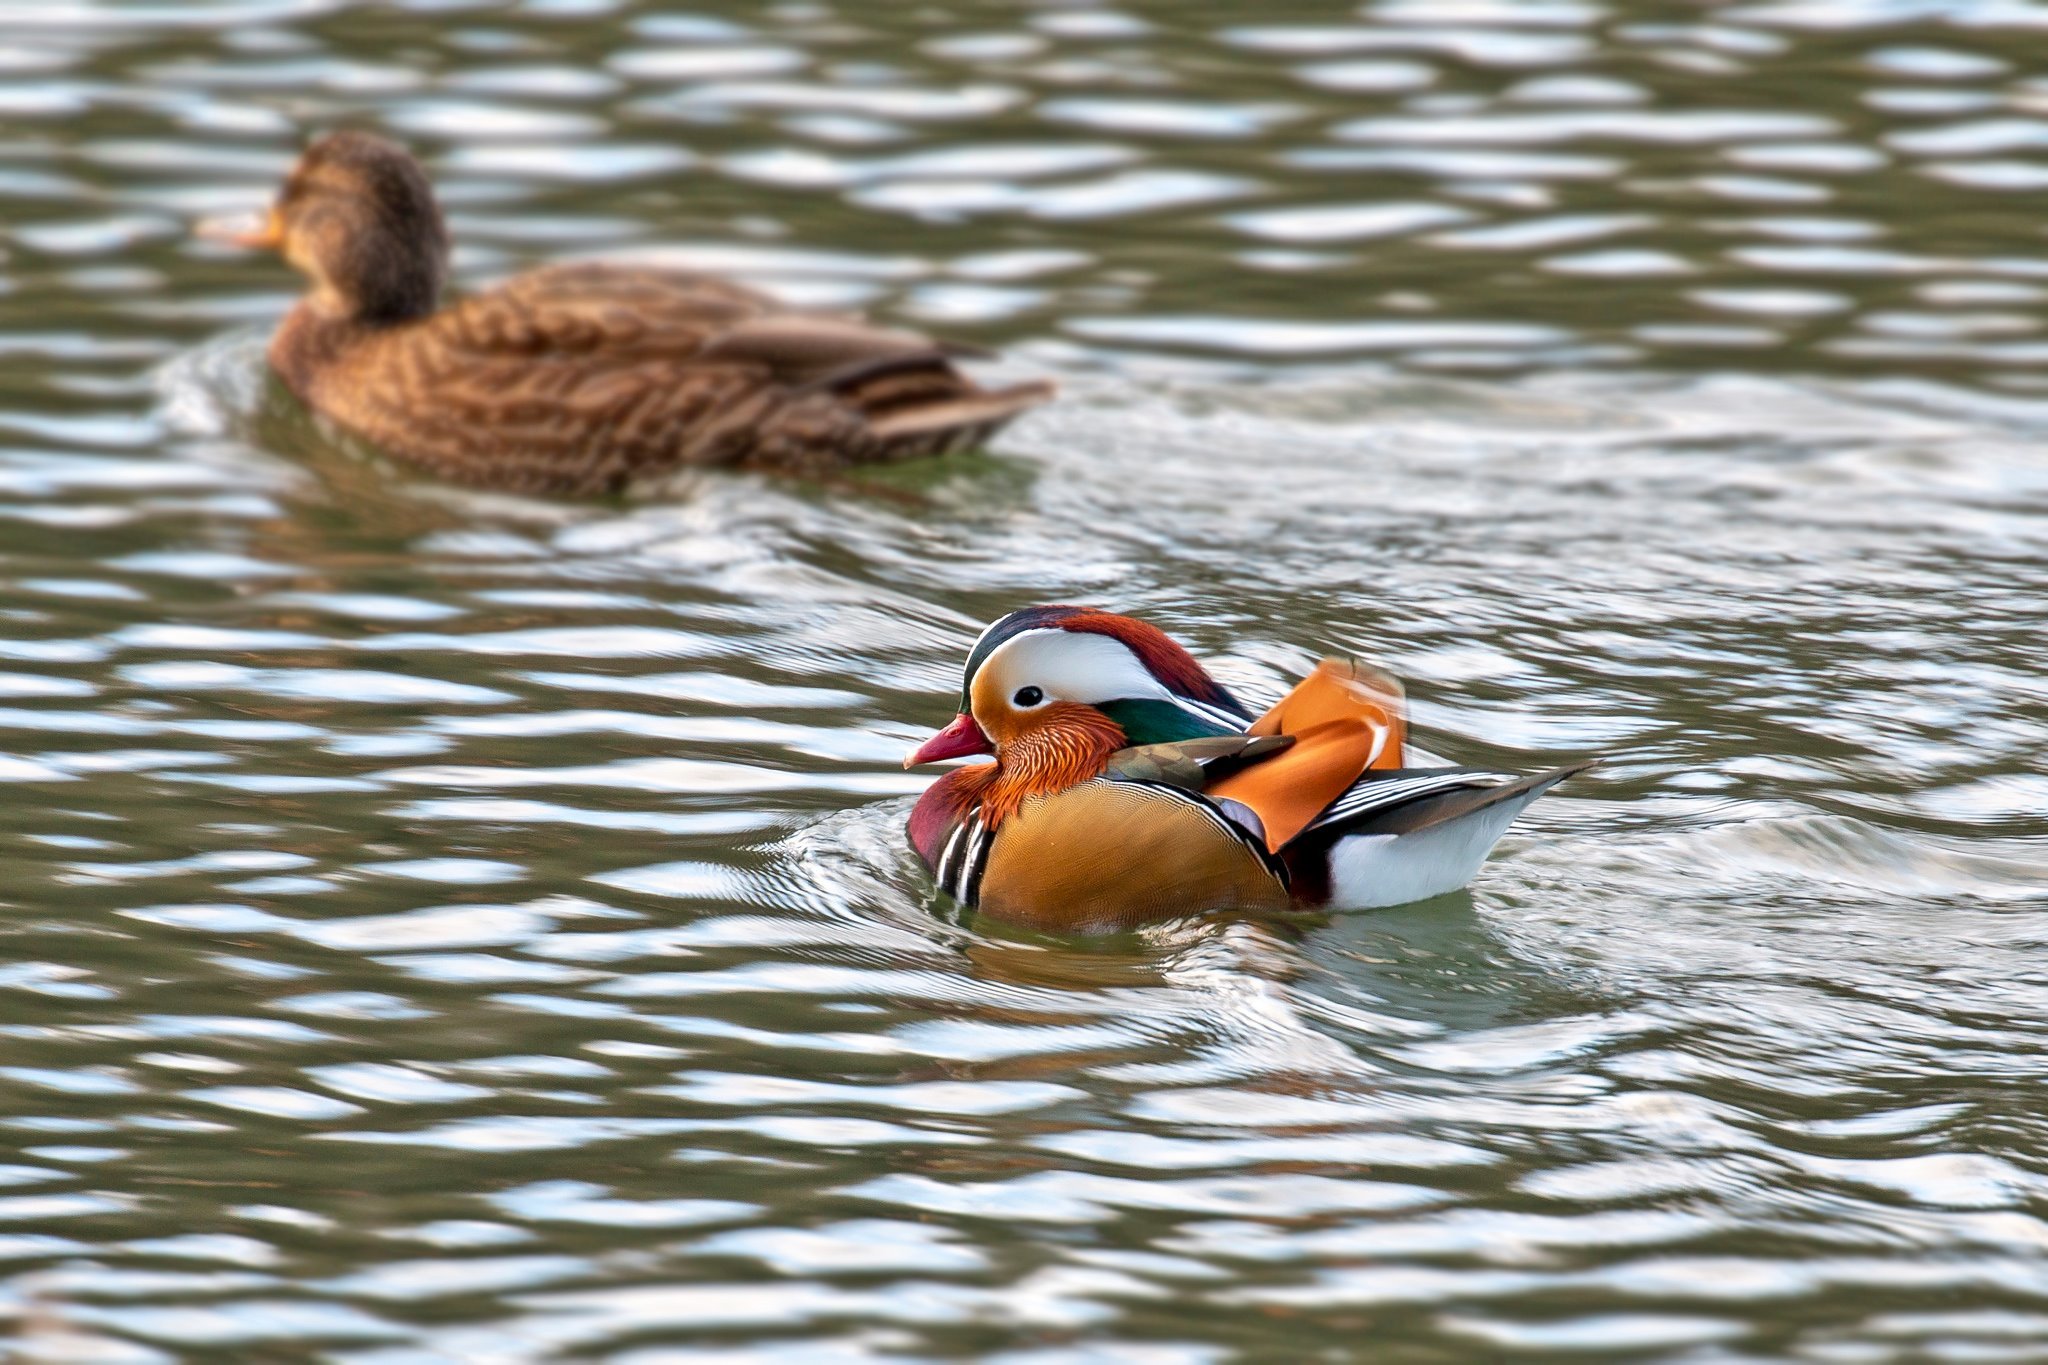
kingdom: Animalia
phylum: Chordata
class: Aves
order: Anseriformes
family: Anatidae
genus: Aix
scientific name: Aix galericulata
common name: Mandarin duck
